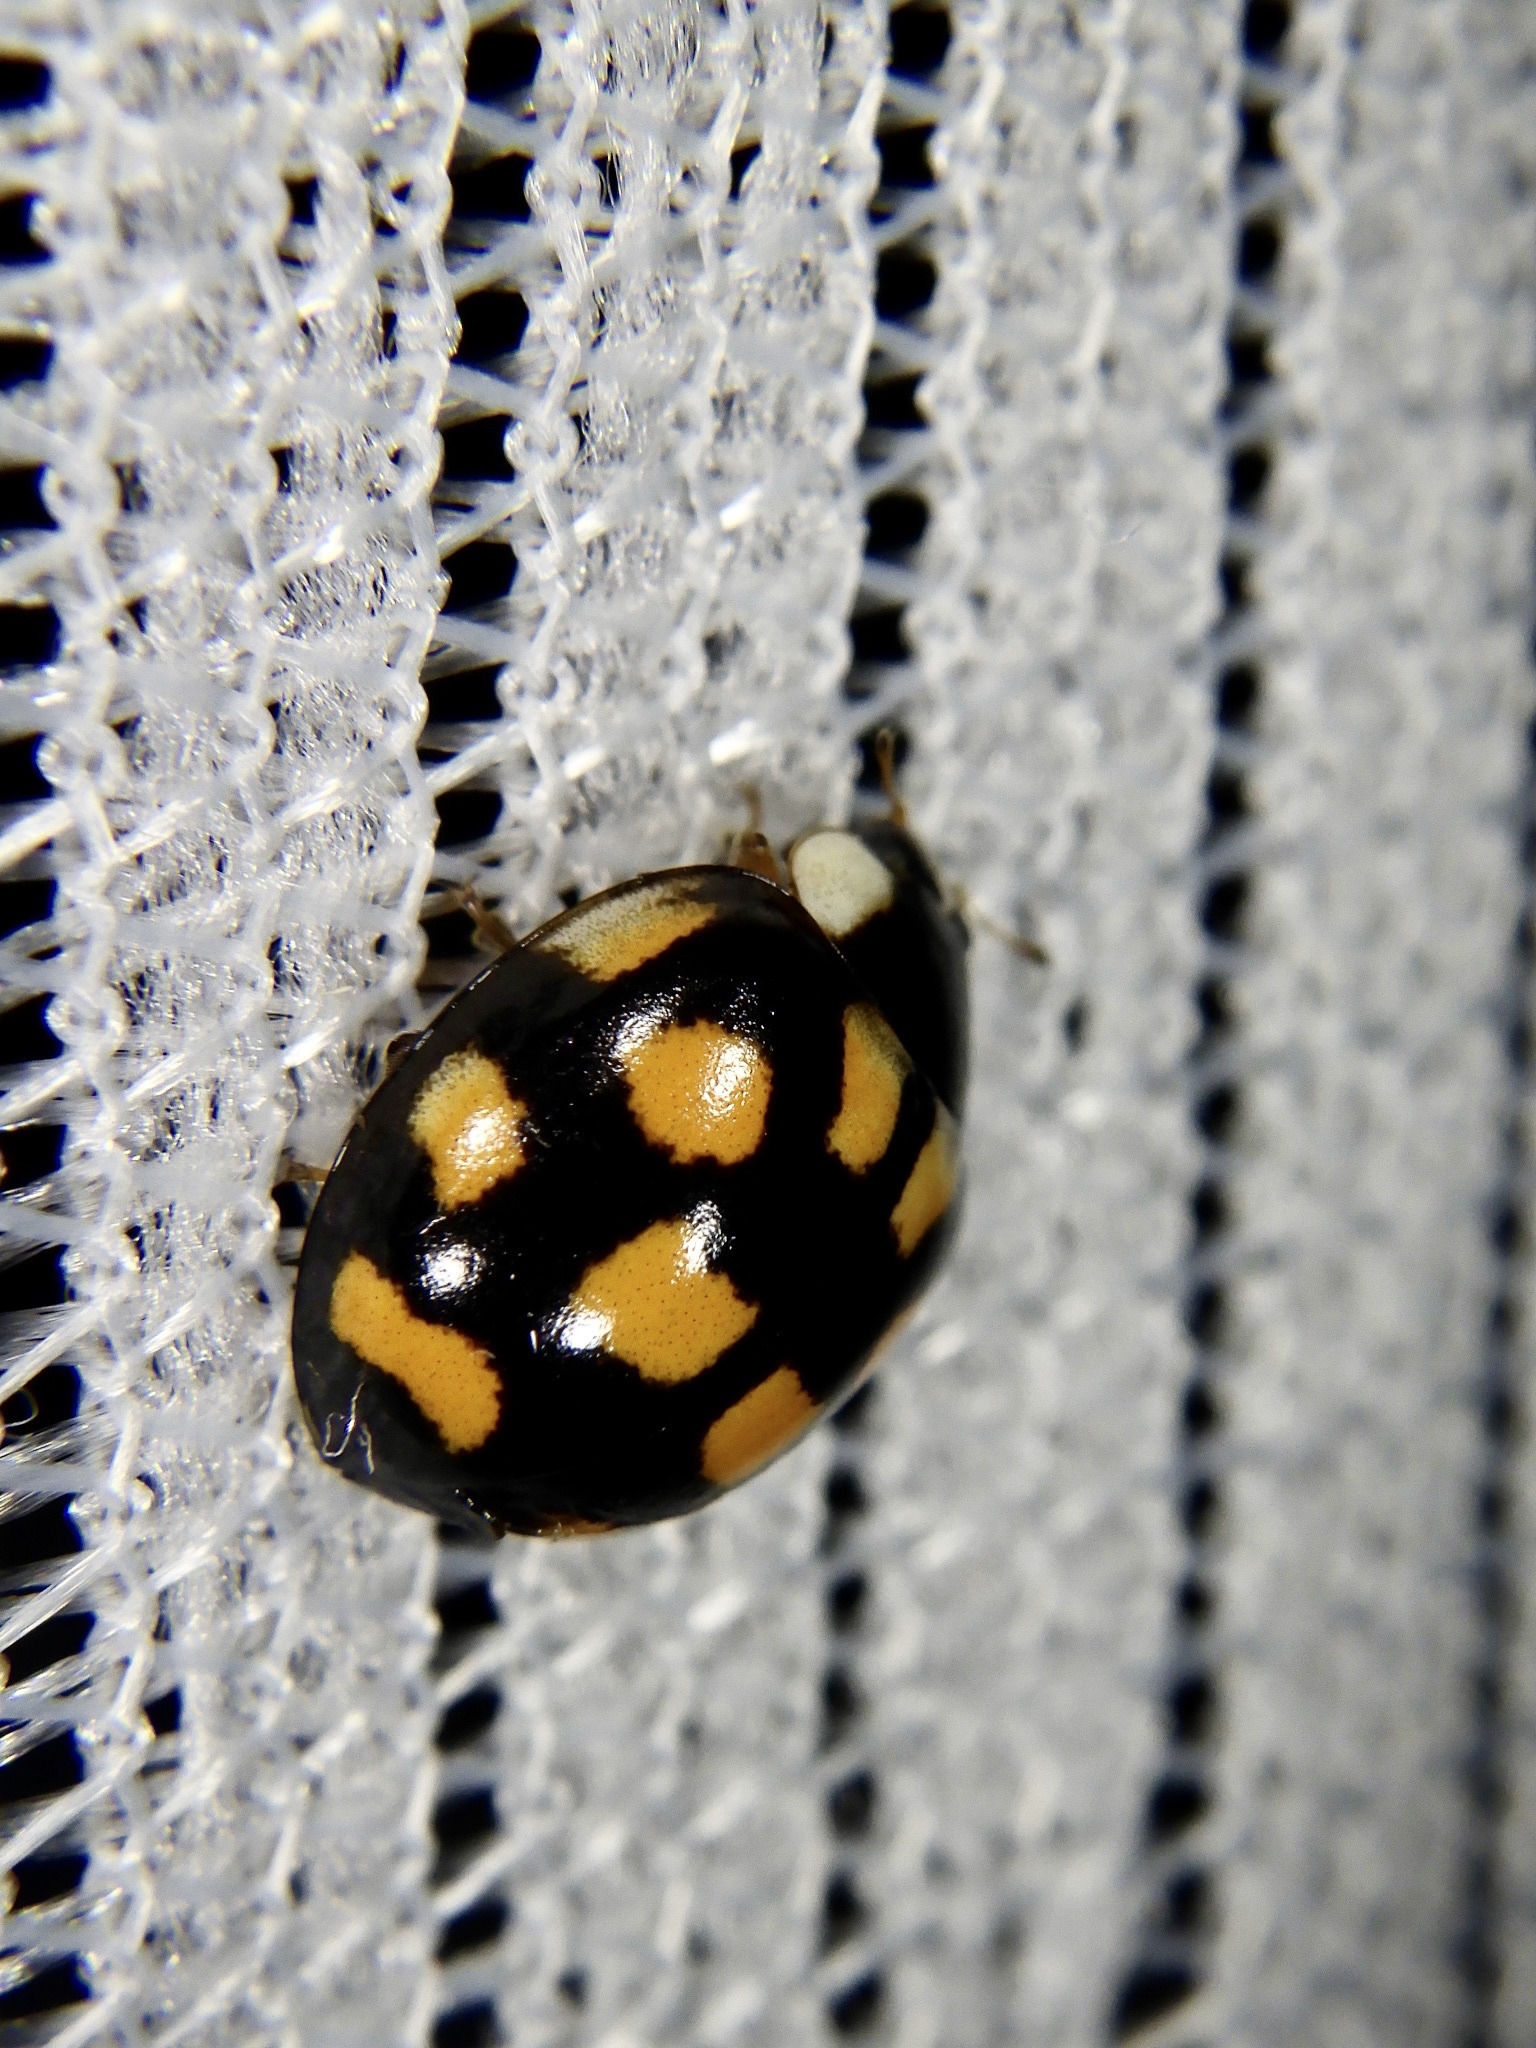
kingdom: Animalia
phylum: Arthropoda
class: Insecta
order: Coleoptera
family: Coccinellidae
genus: Harmonia
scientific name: Harmonia axyridis
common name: Harlequin ladybird
